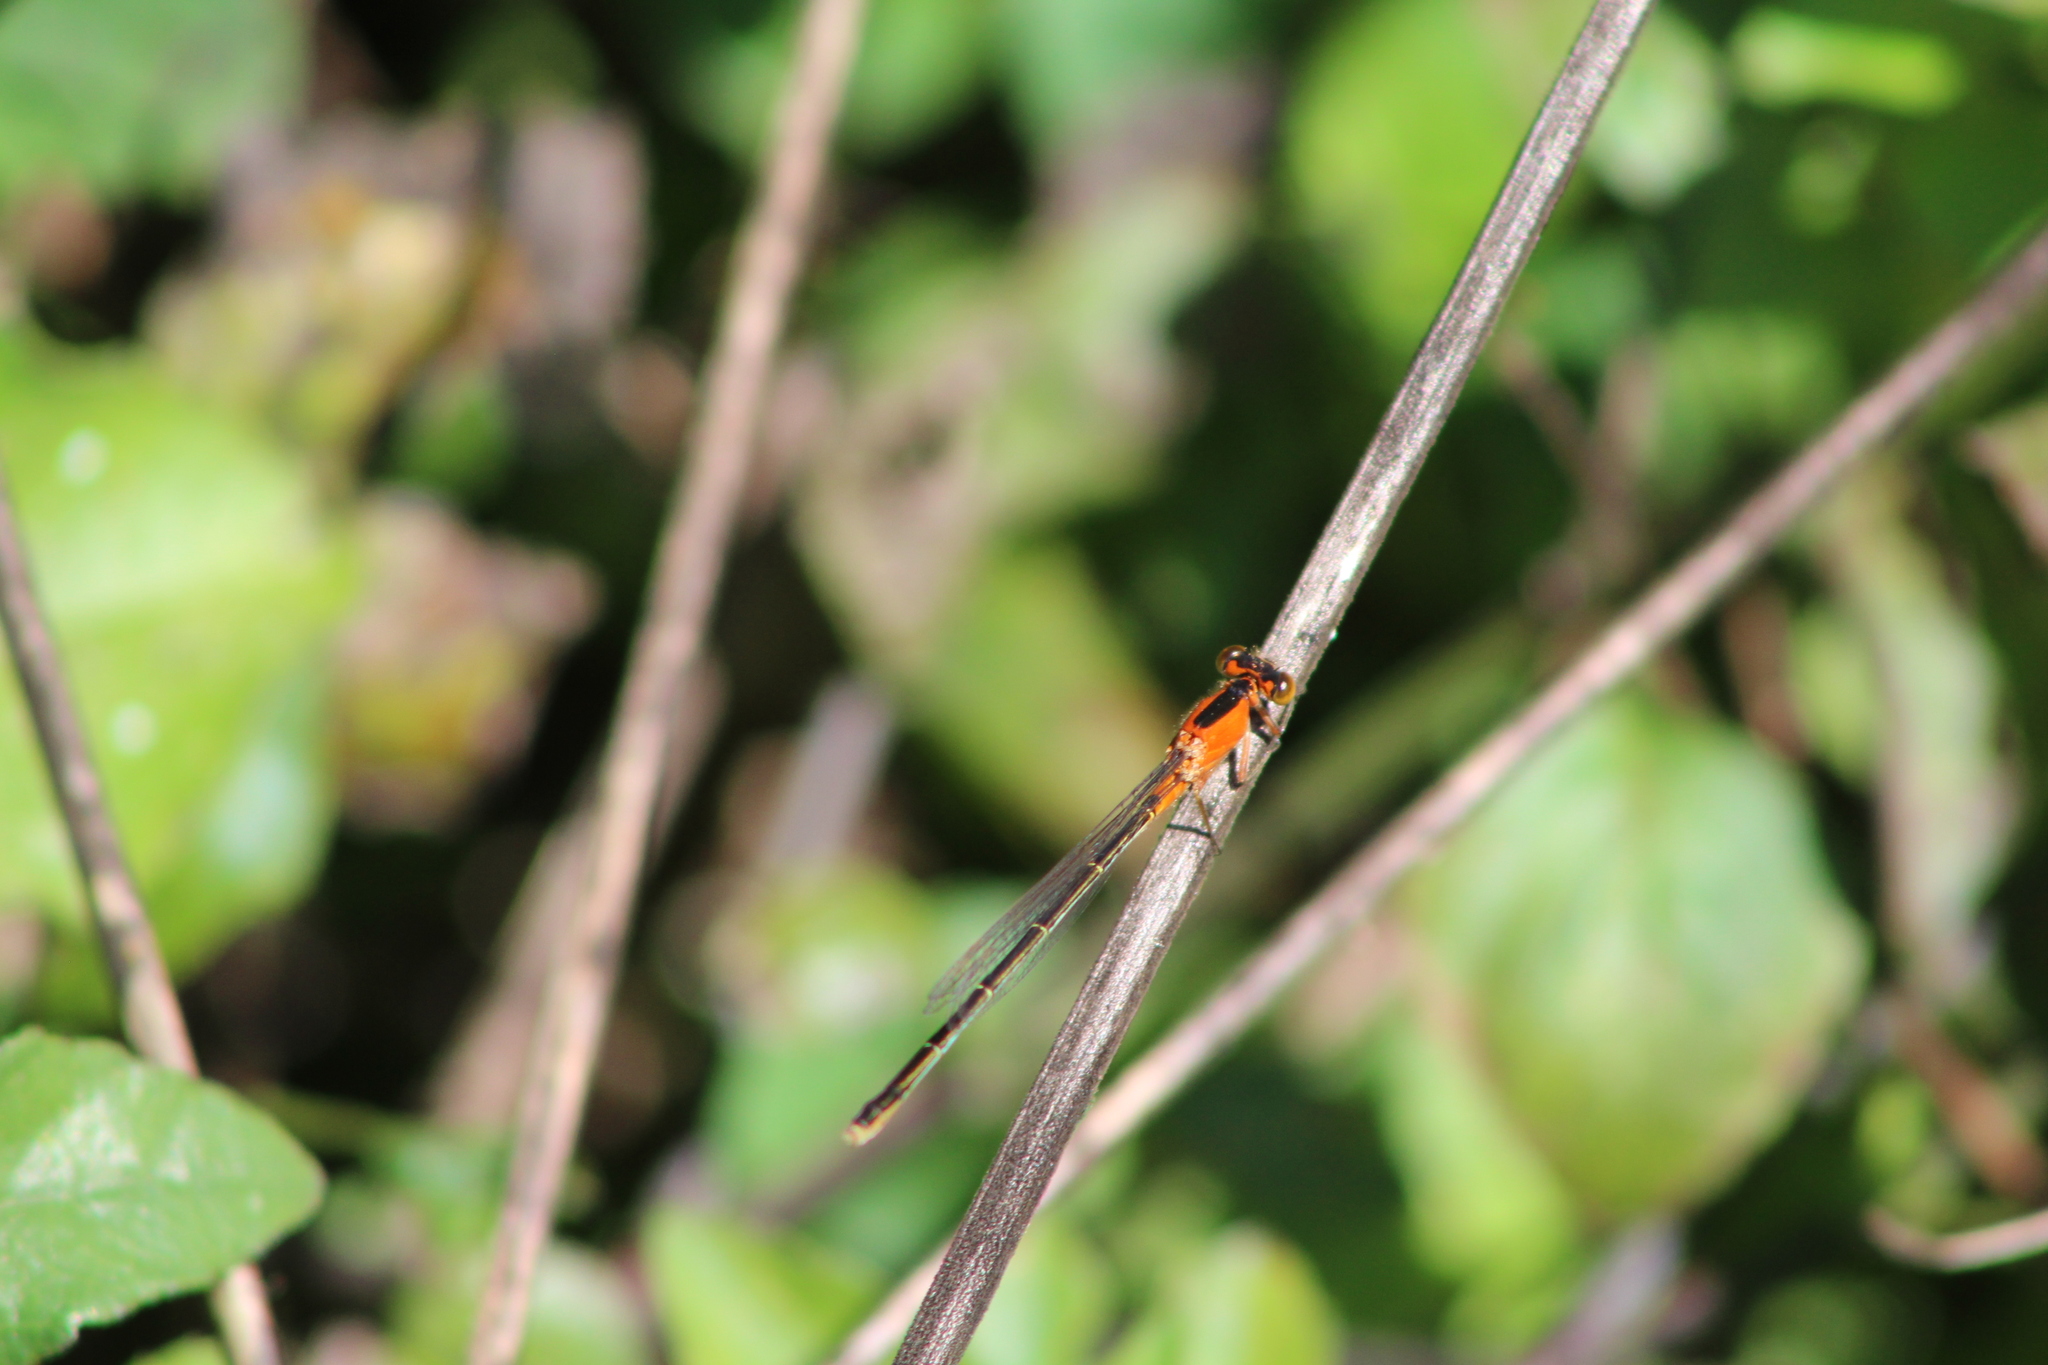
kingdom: Animalia
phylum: Arthropoda
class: Insecta
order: Odonata
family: Coenagrionidae
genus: Ischnura
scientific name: Ischnura ramburii
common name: Rambur's forktail
